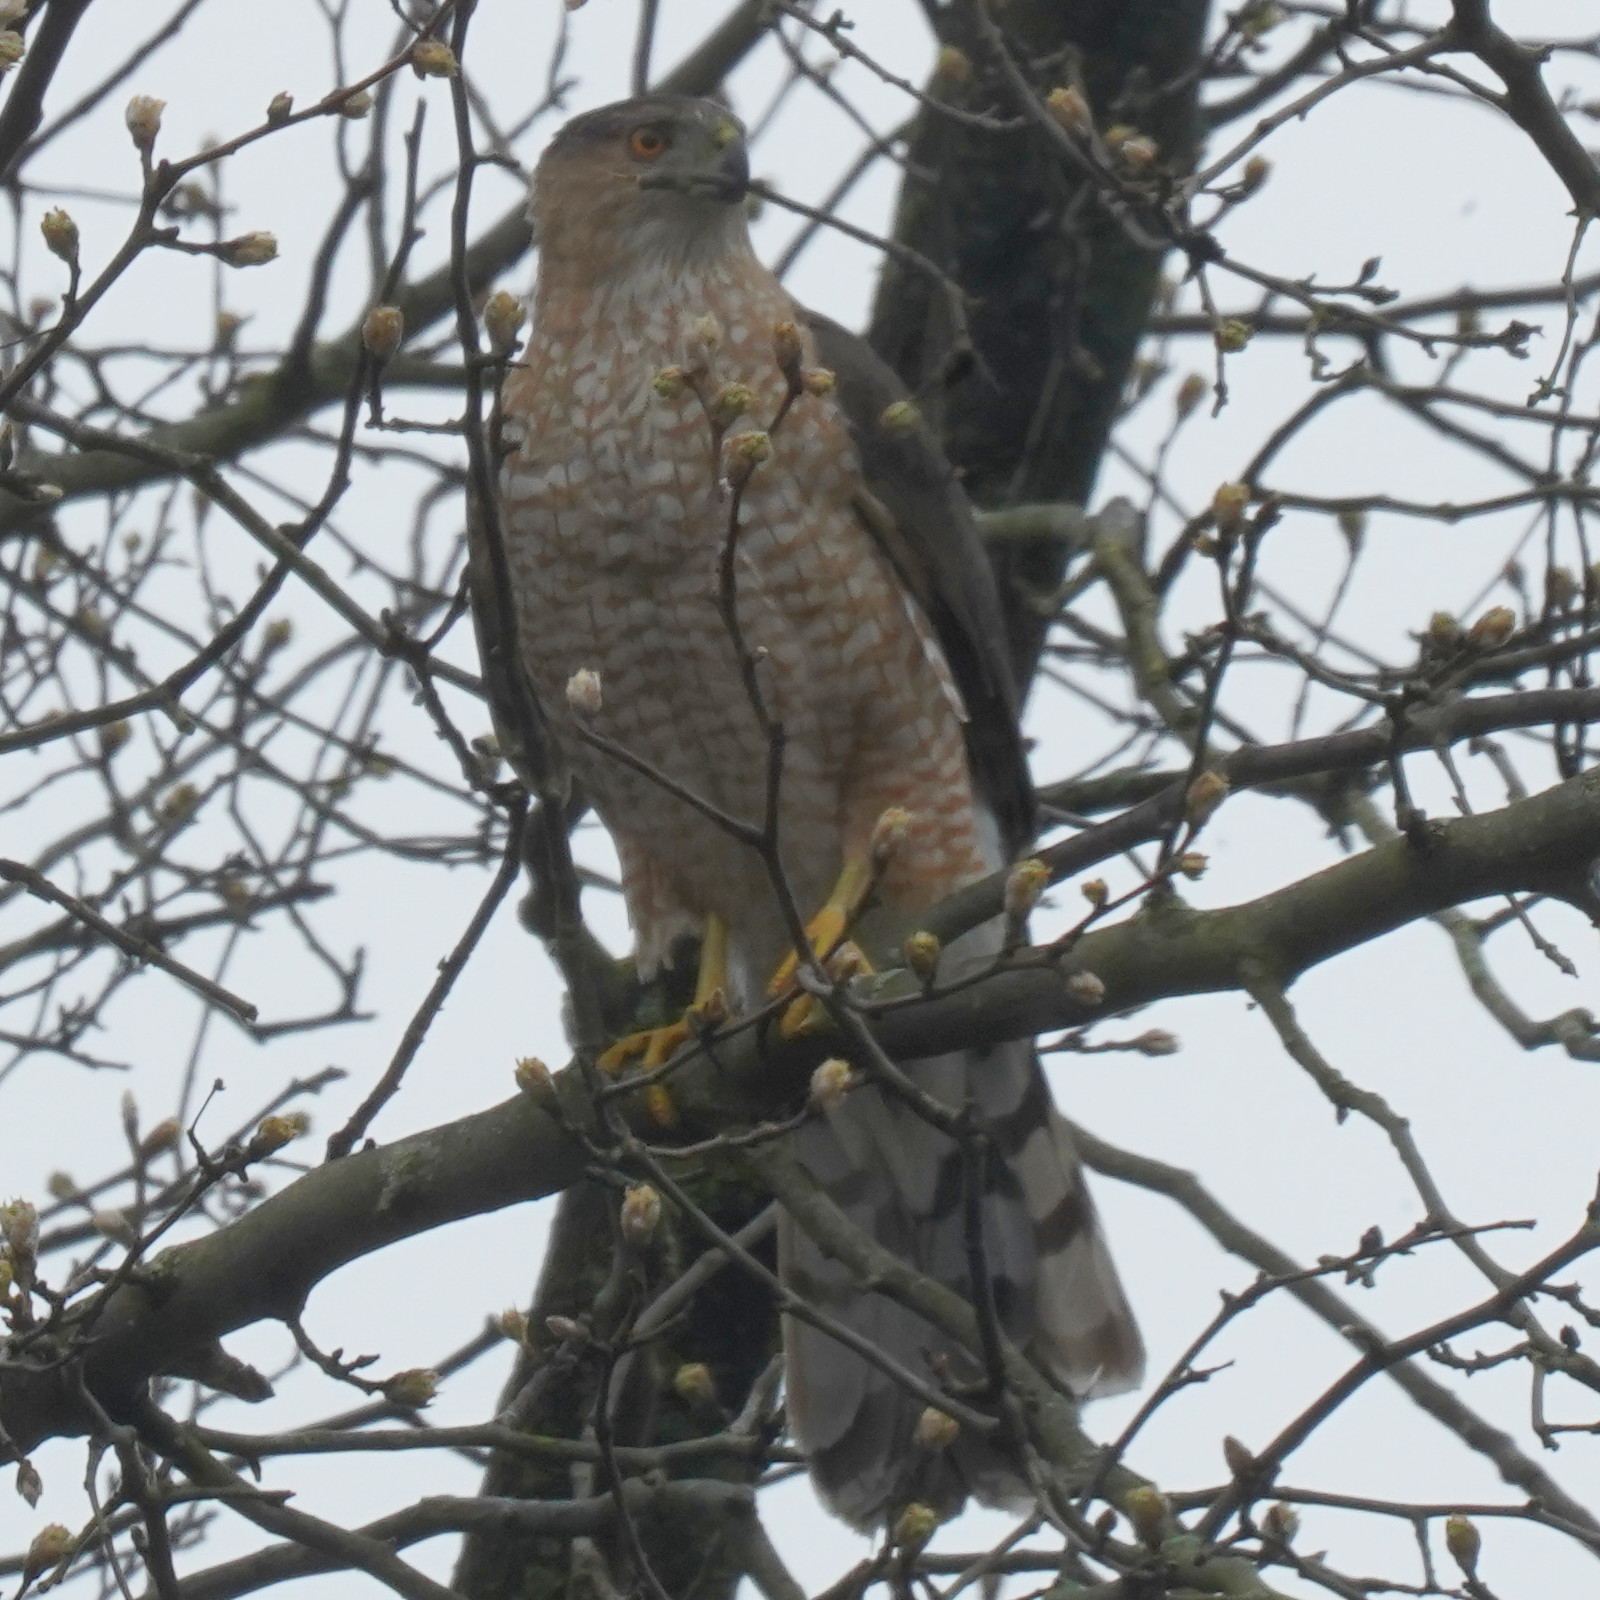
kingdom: Animalia
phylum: Chordata
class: Aves
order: Accipitriformes
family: Accipitridae
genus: Accipiter
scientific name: Accipiter cooperii
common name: Cooper's hawk
